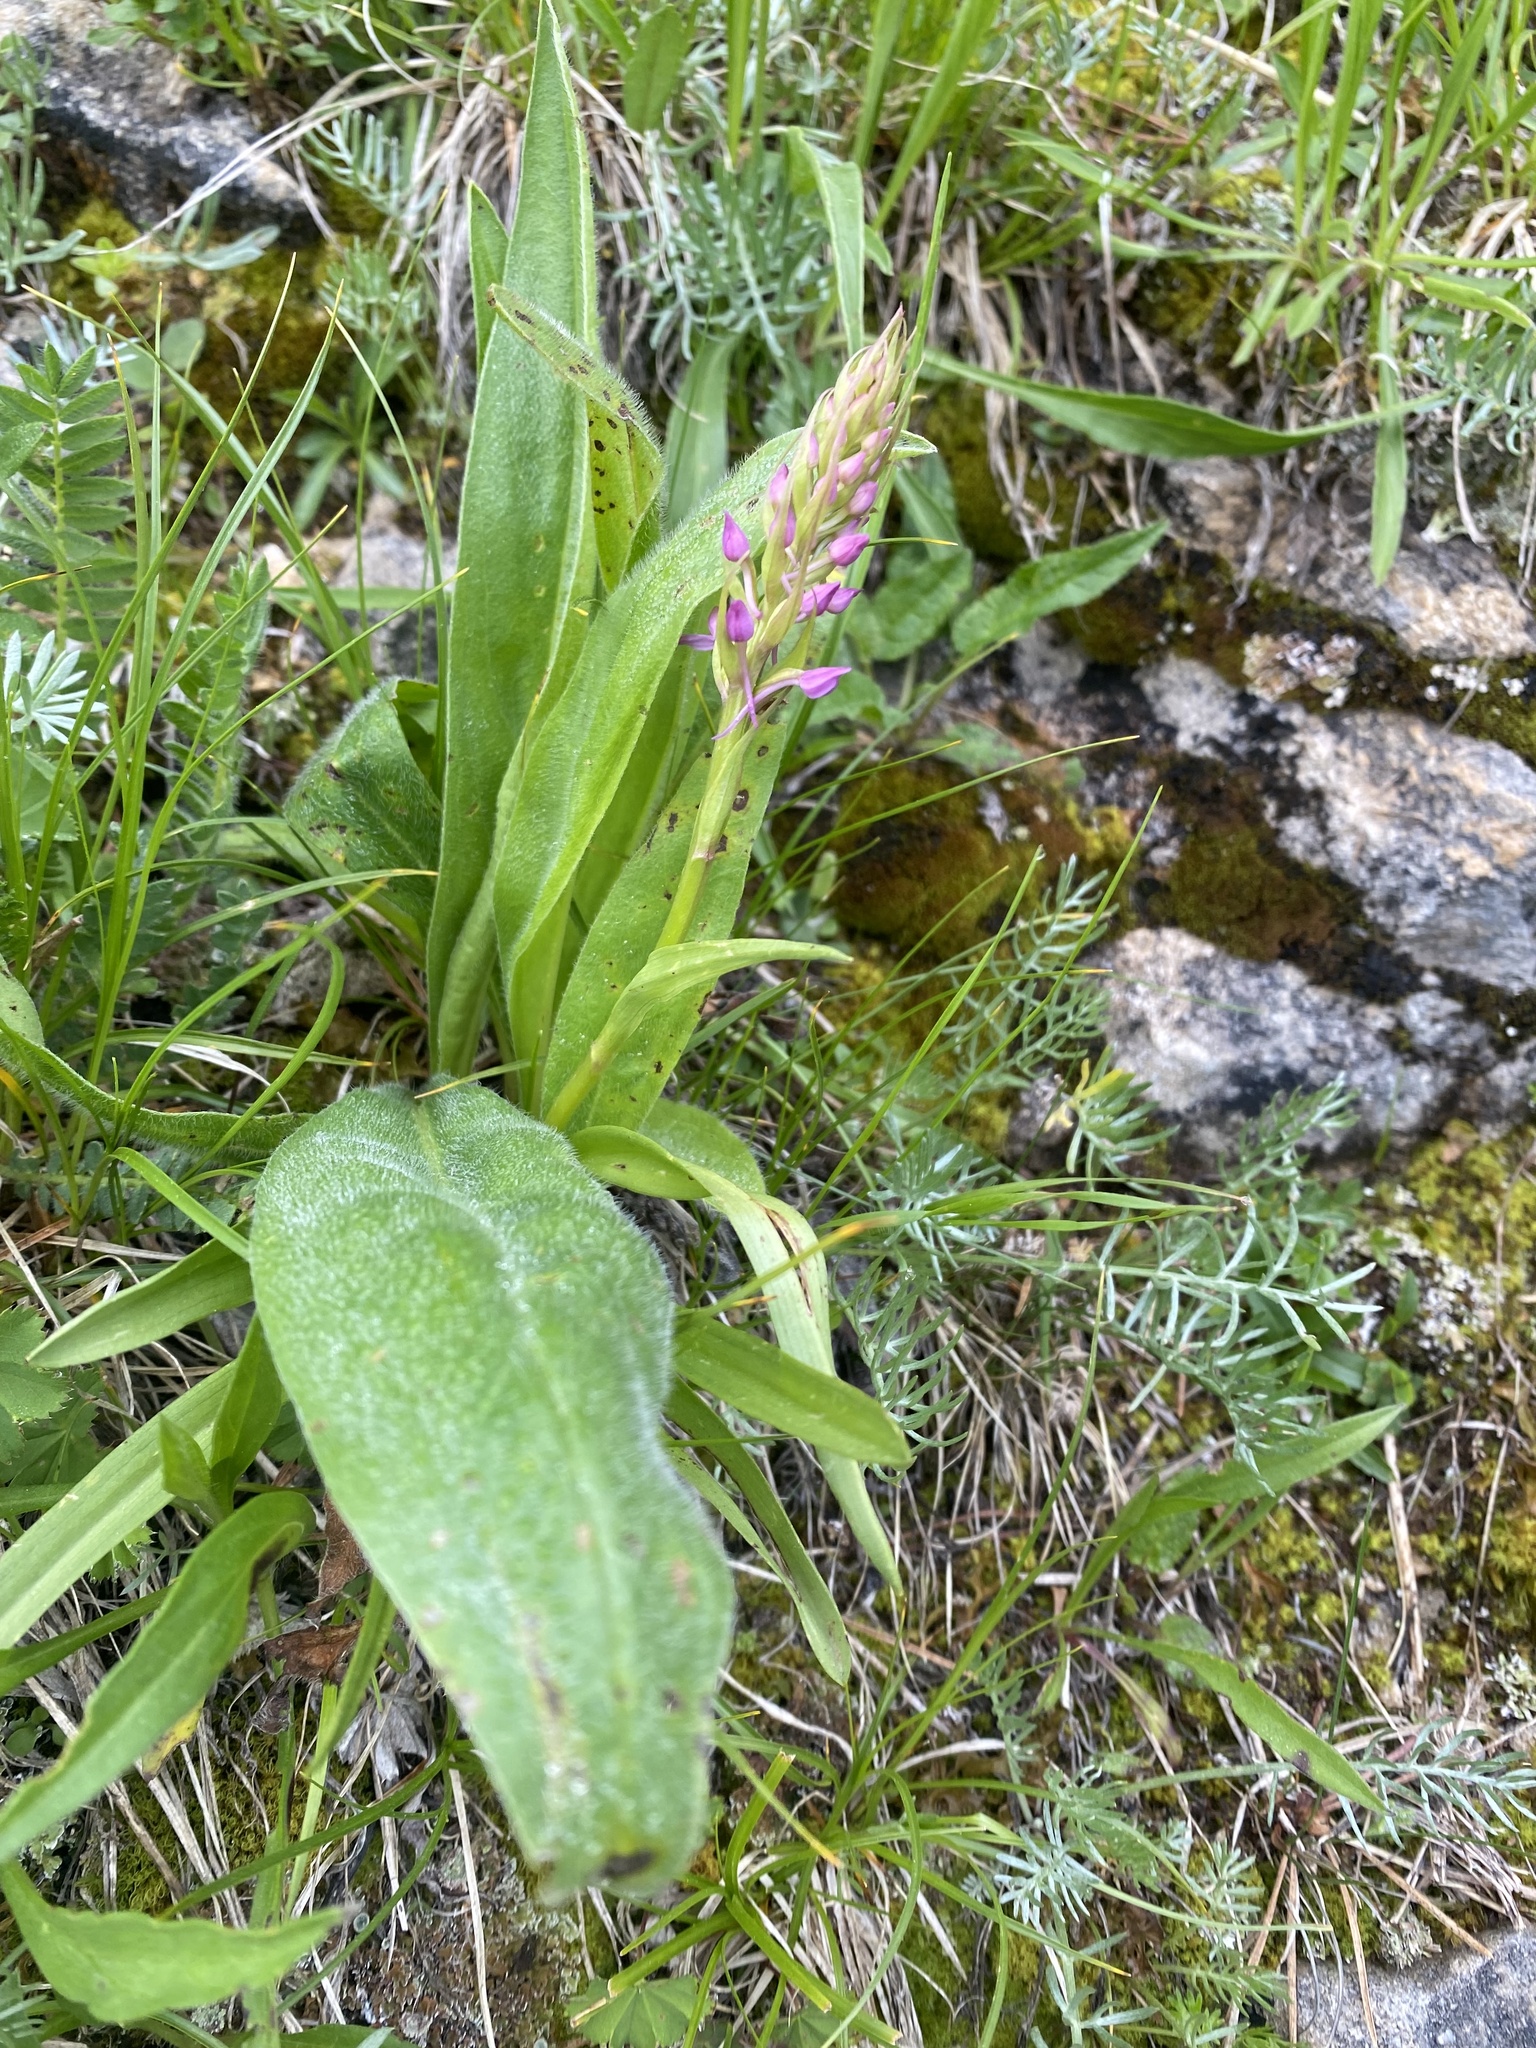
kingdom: Plantae
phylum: Tracheophyta
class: Liliopsida
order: Asparagales
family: Orchidaceae
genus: Gymnadenia
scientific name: Gymnadenia conopsea
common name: Fragrant orchid
